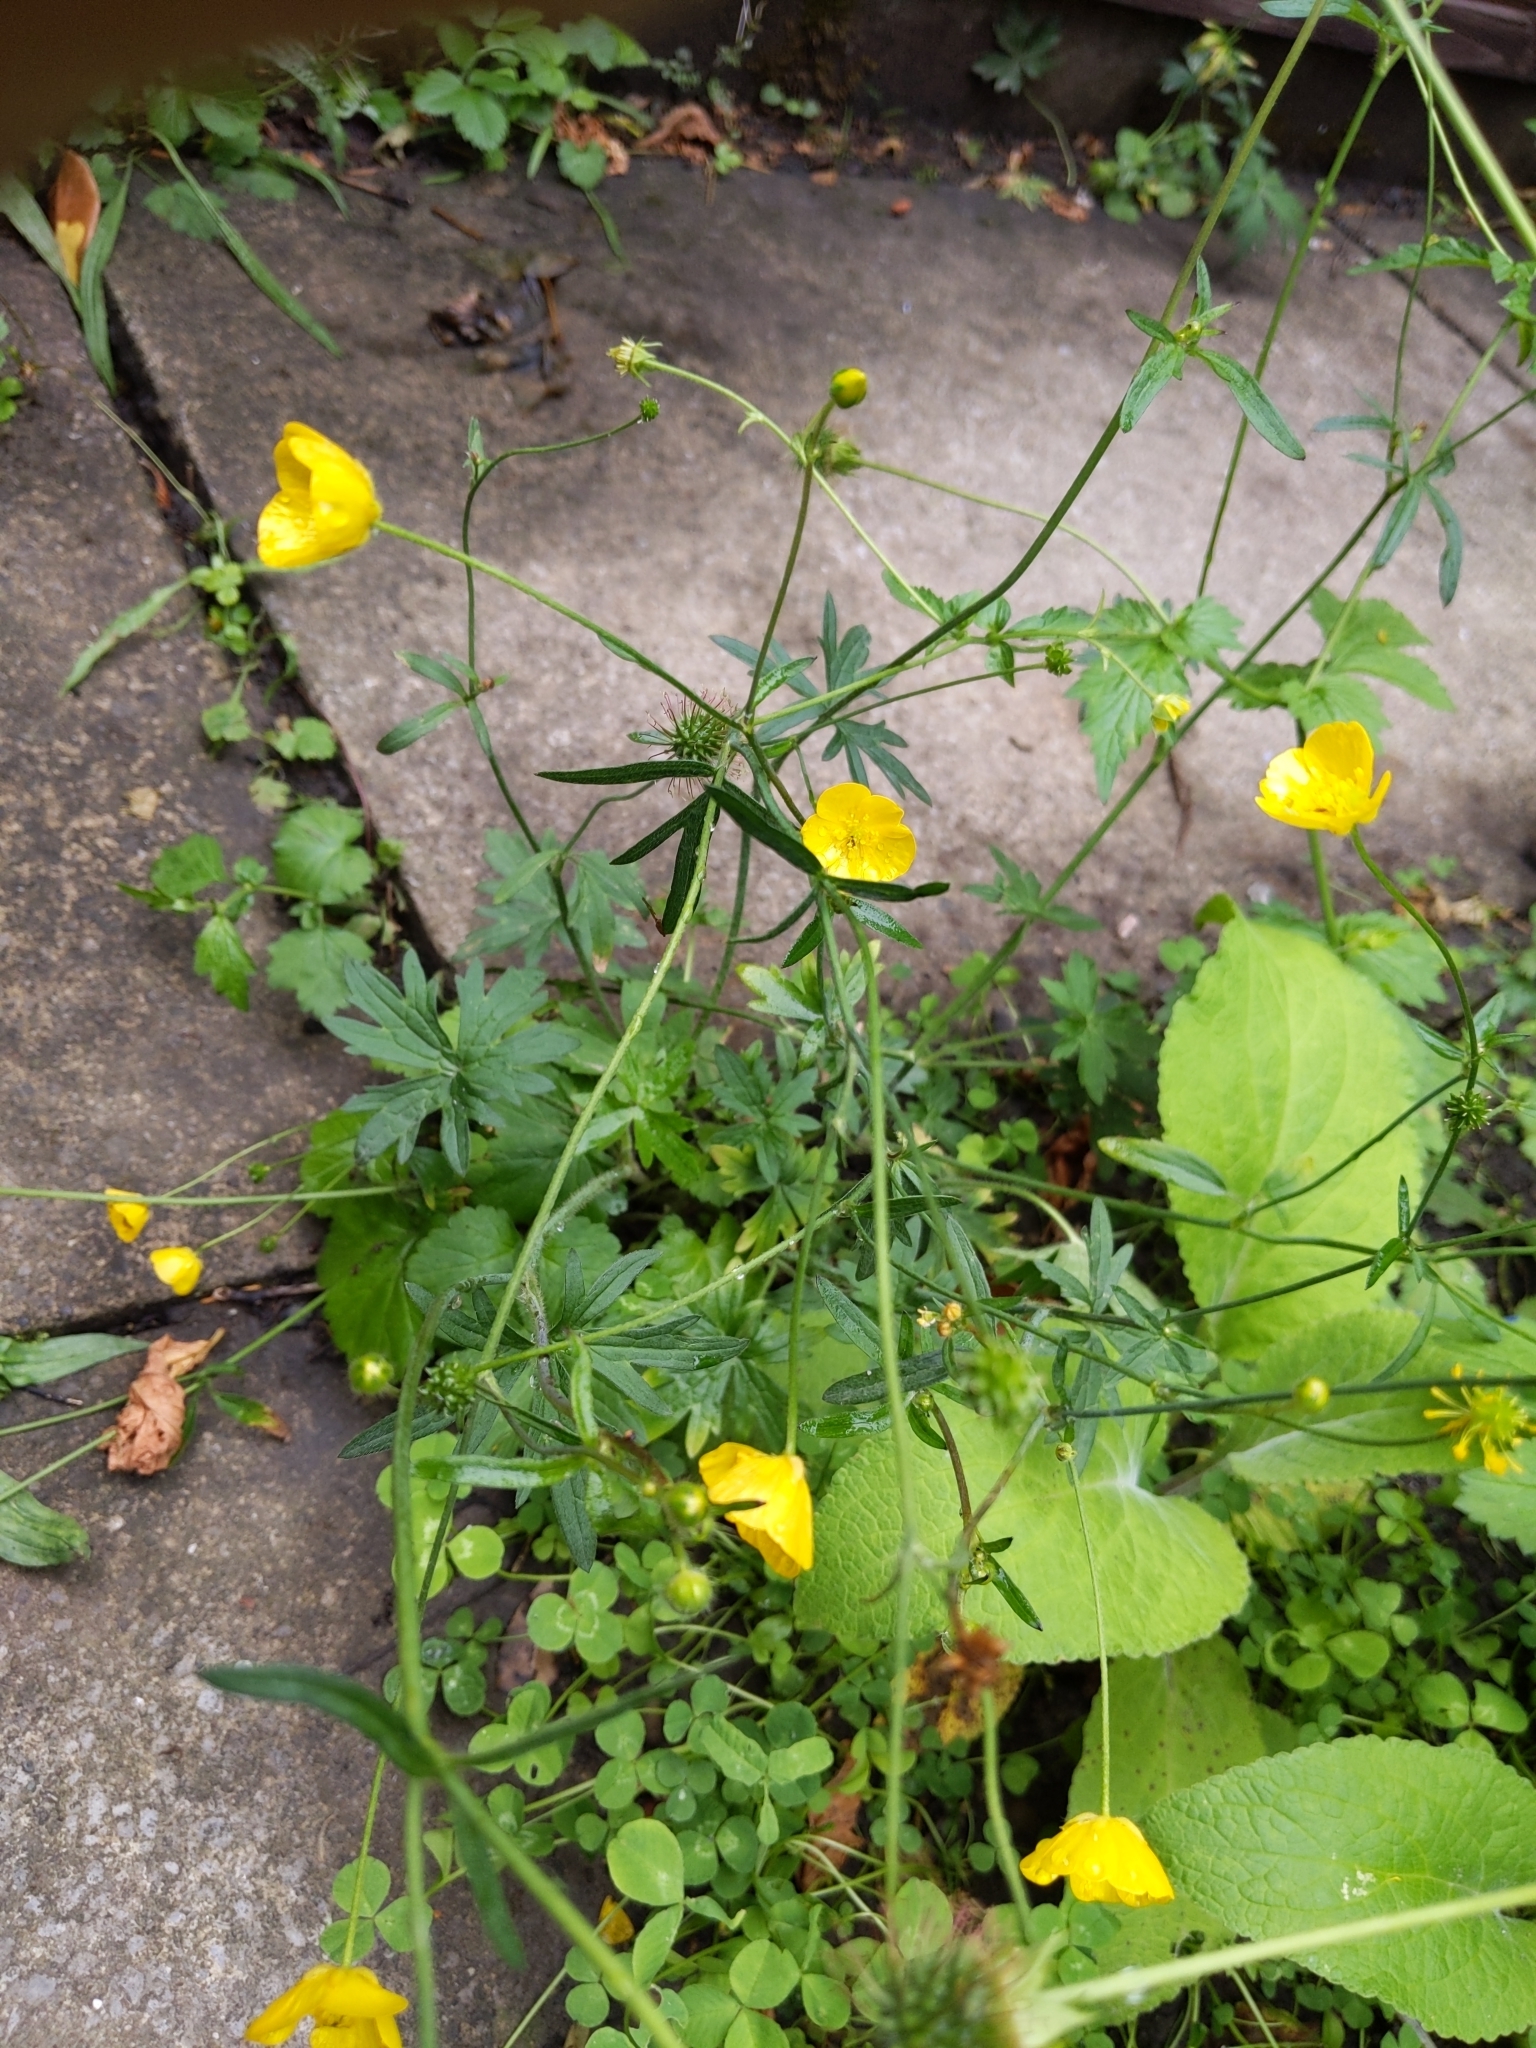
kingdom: Plantae
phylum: Tracheophyta
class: Magnoliopsida
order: Ranunculales
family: Ranunculaceae
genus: Ranunculus
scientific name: Ranunculus acris
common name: Meadow buttercup
